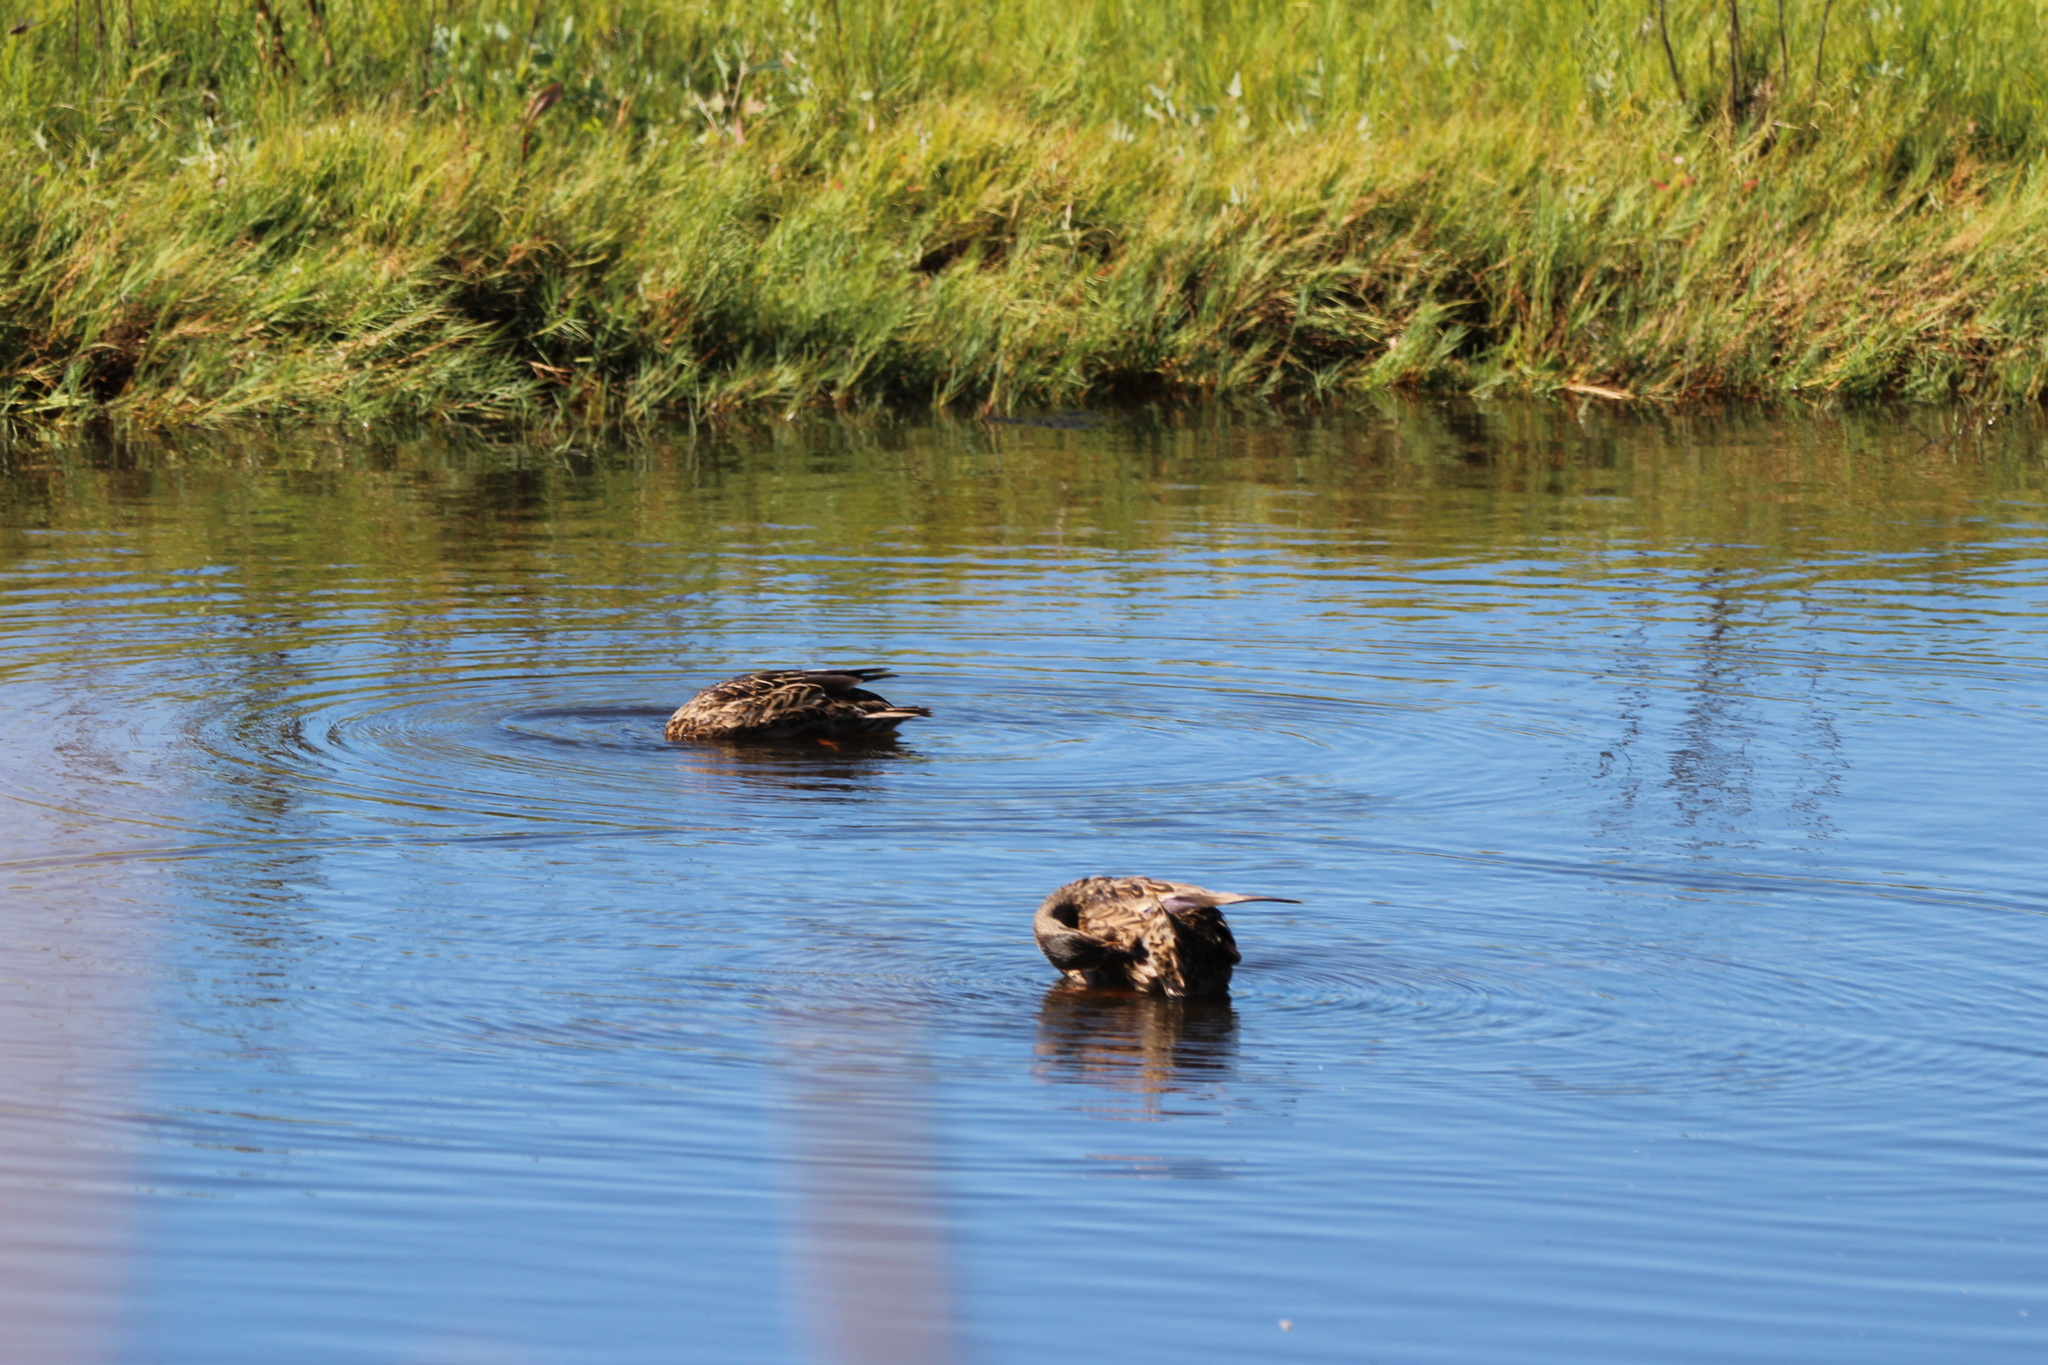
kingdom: Animalia
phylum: Chordata
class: Aves
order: Anseriformes
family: Anatidae
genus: Anas
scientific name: Anas platyrhynchos
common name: Mallard
